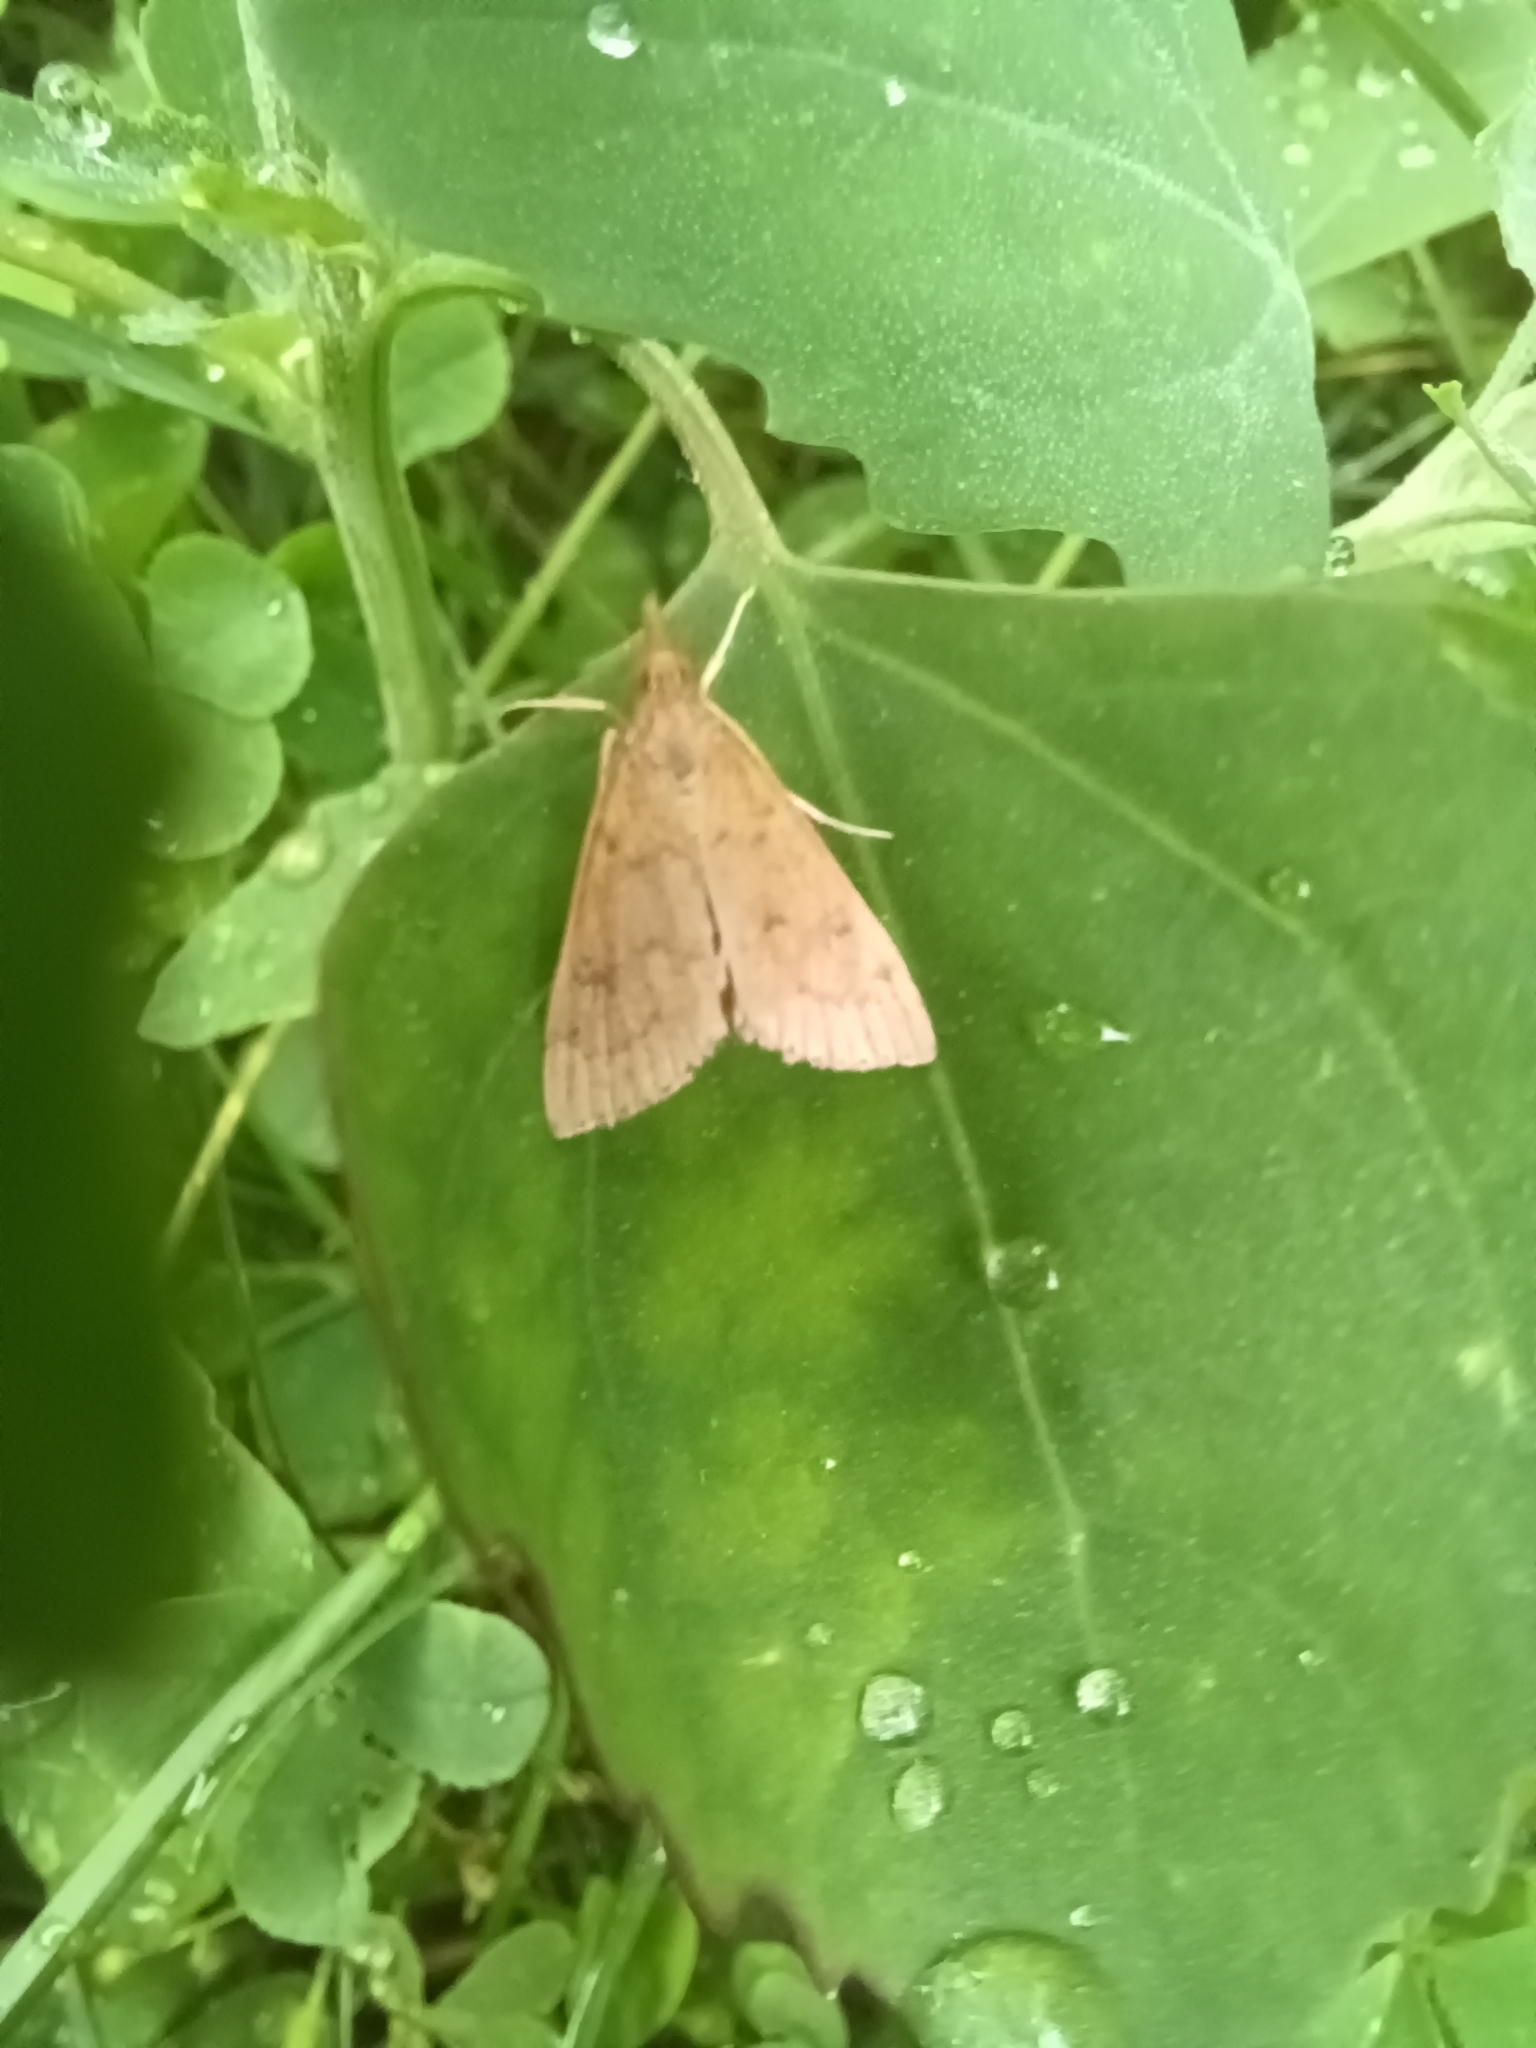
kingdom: Animalia
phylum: Arthropoda
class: Insecta
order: Lepidoptera
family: Crambidae
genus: Udea
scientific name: Udea rubigalis
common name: Celery leaftier moth
